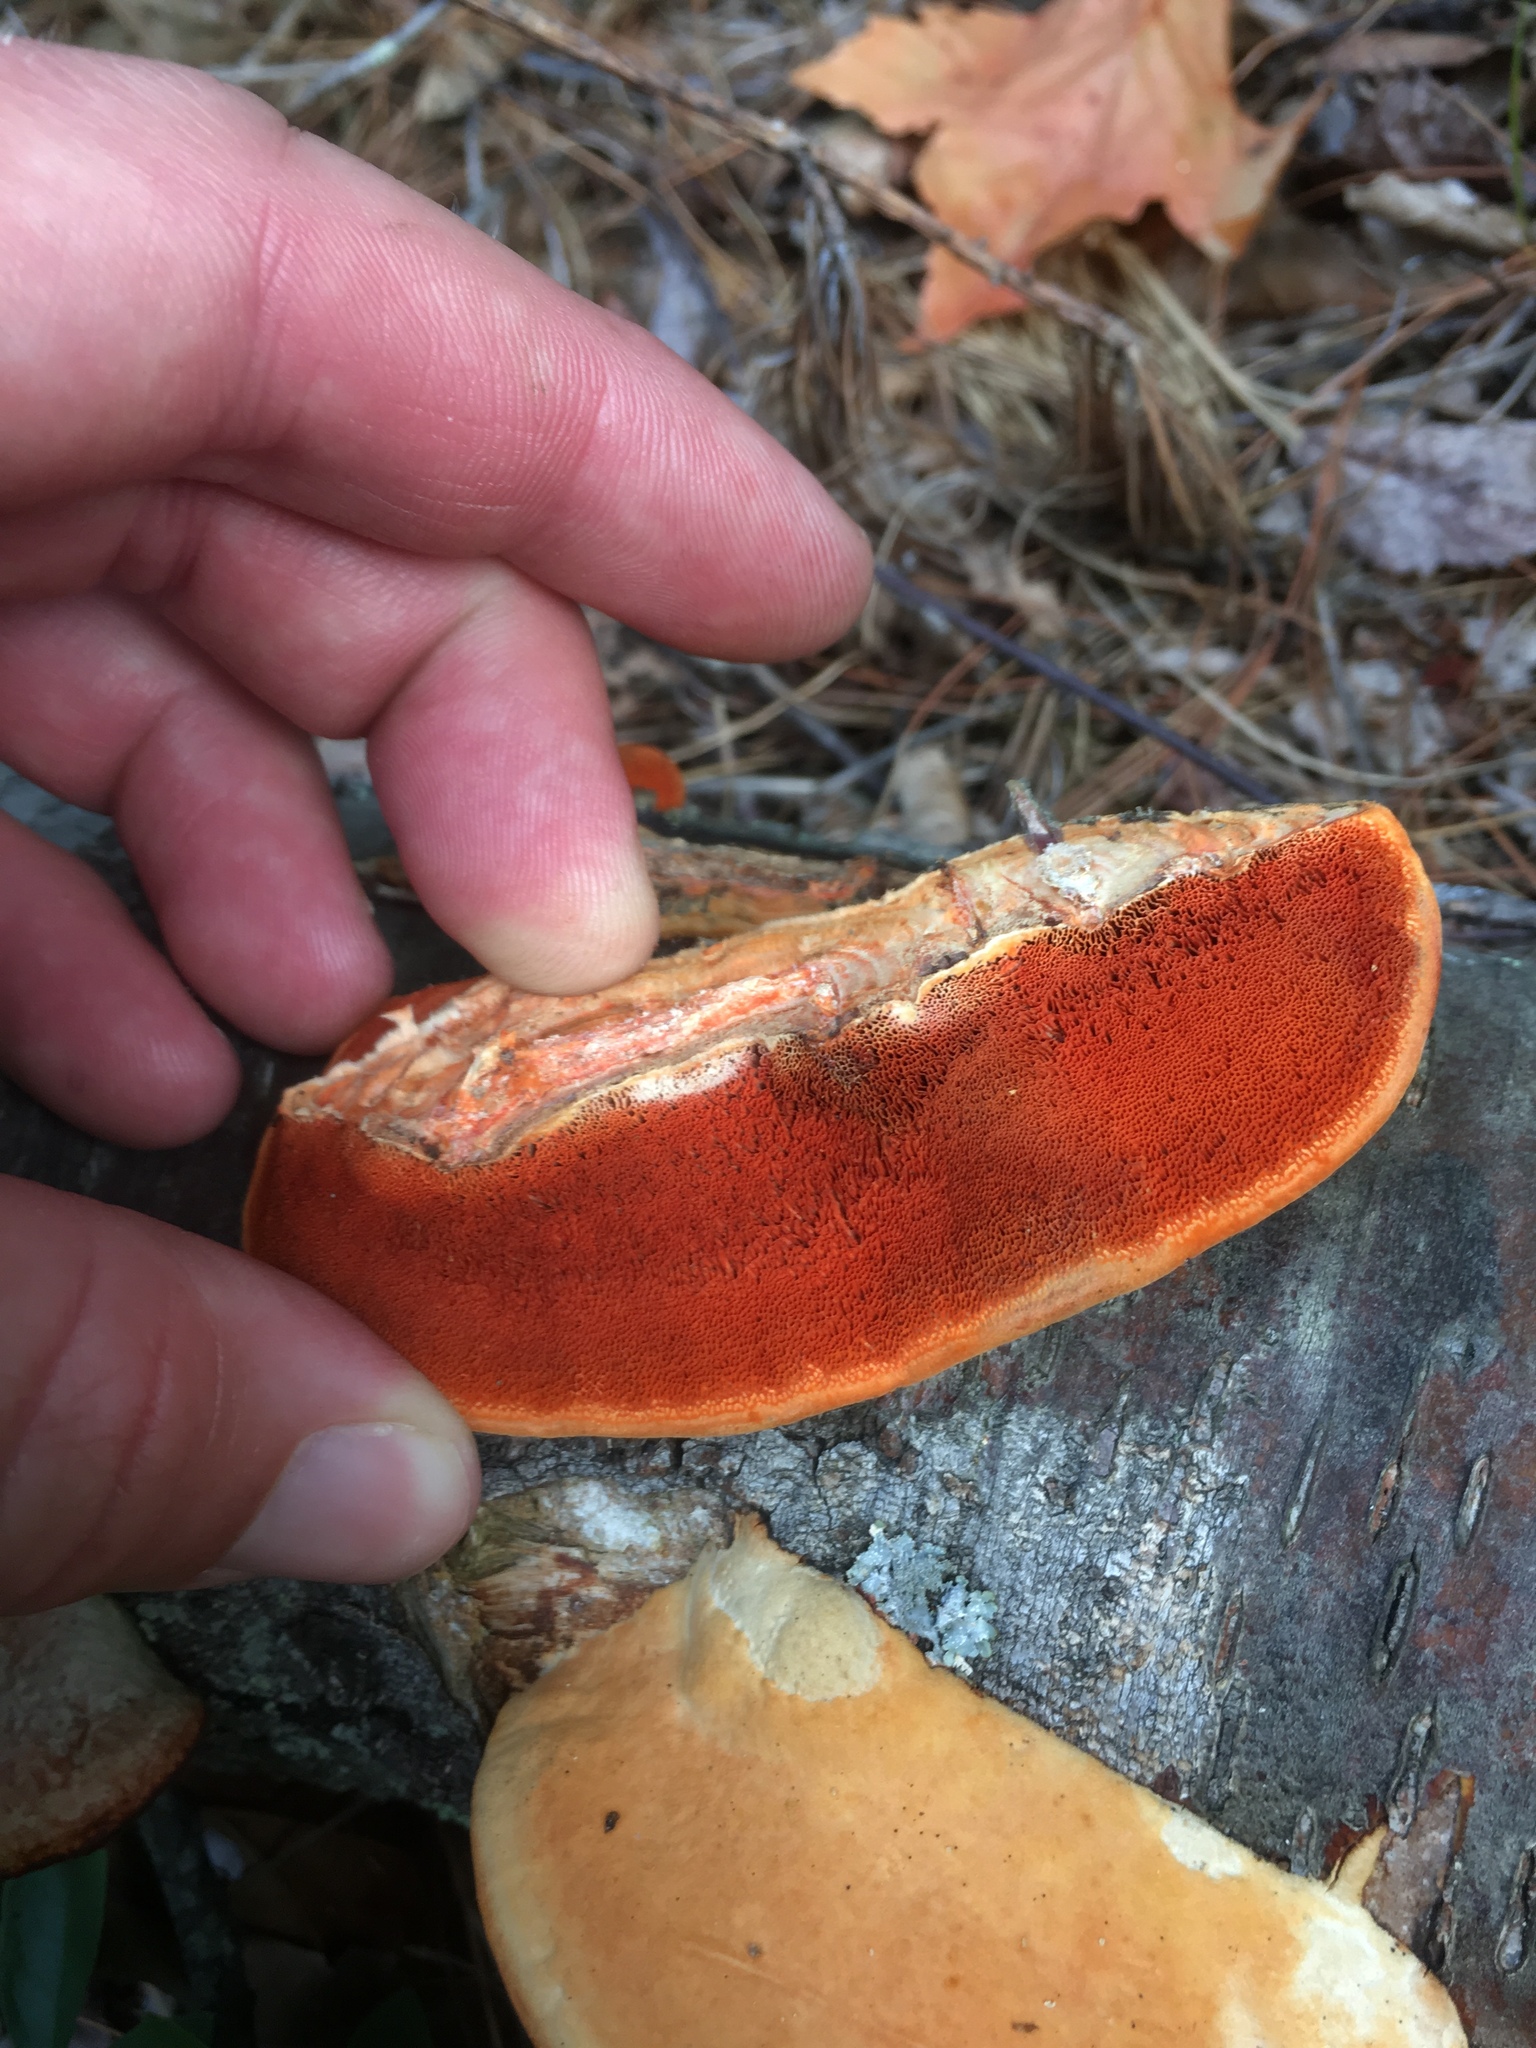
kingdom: Fungi
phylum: Basidiomycota
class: Agaricomycetes
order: Polyporales
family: Polyporaceae
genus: Trametes
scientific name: Trametes cinnabarina
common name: Northern cinnabar polypore
